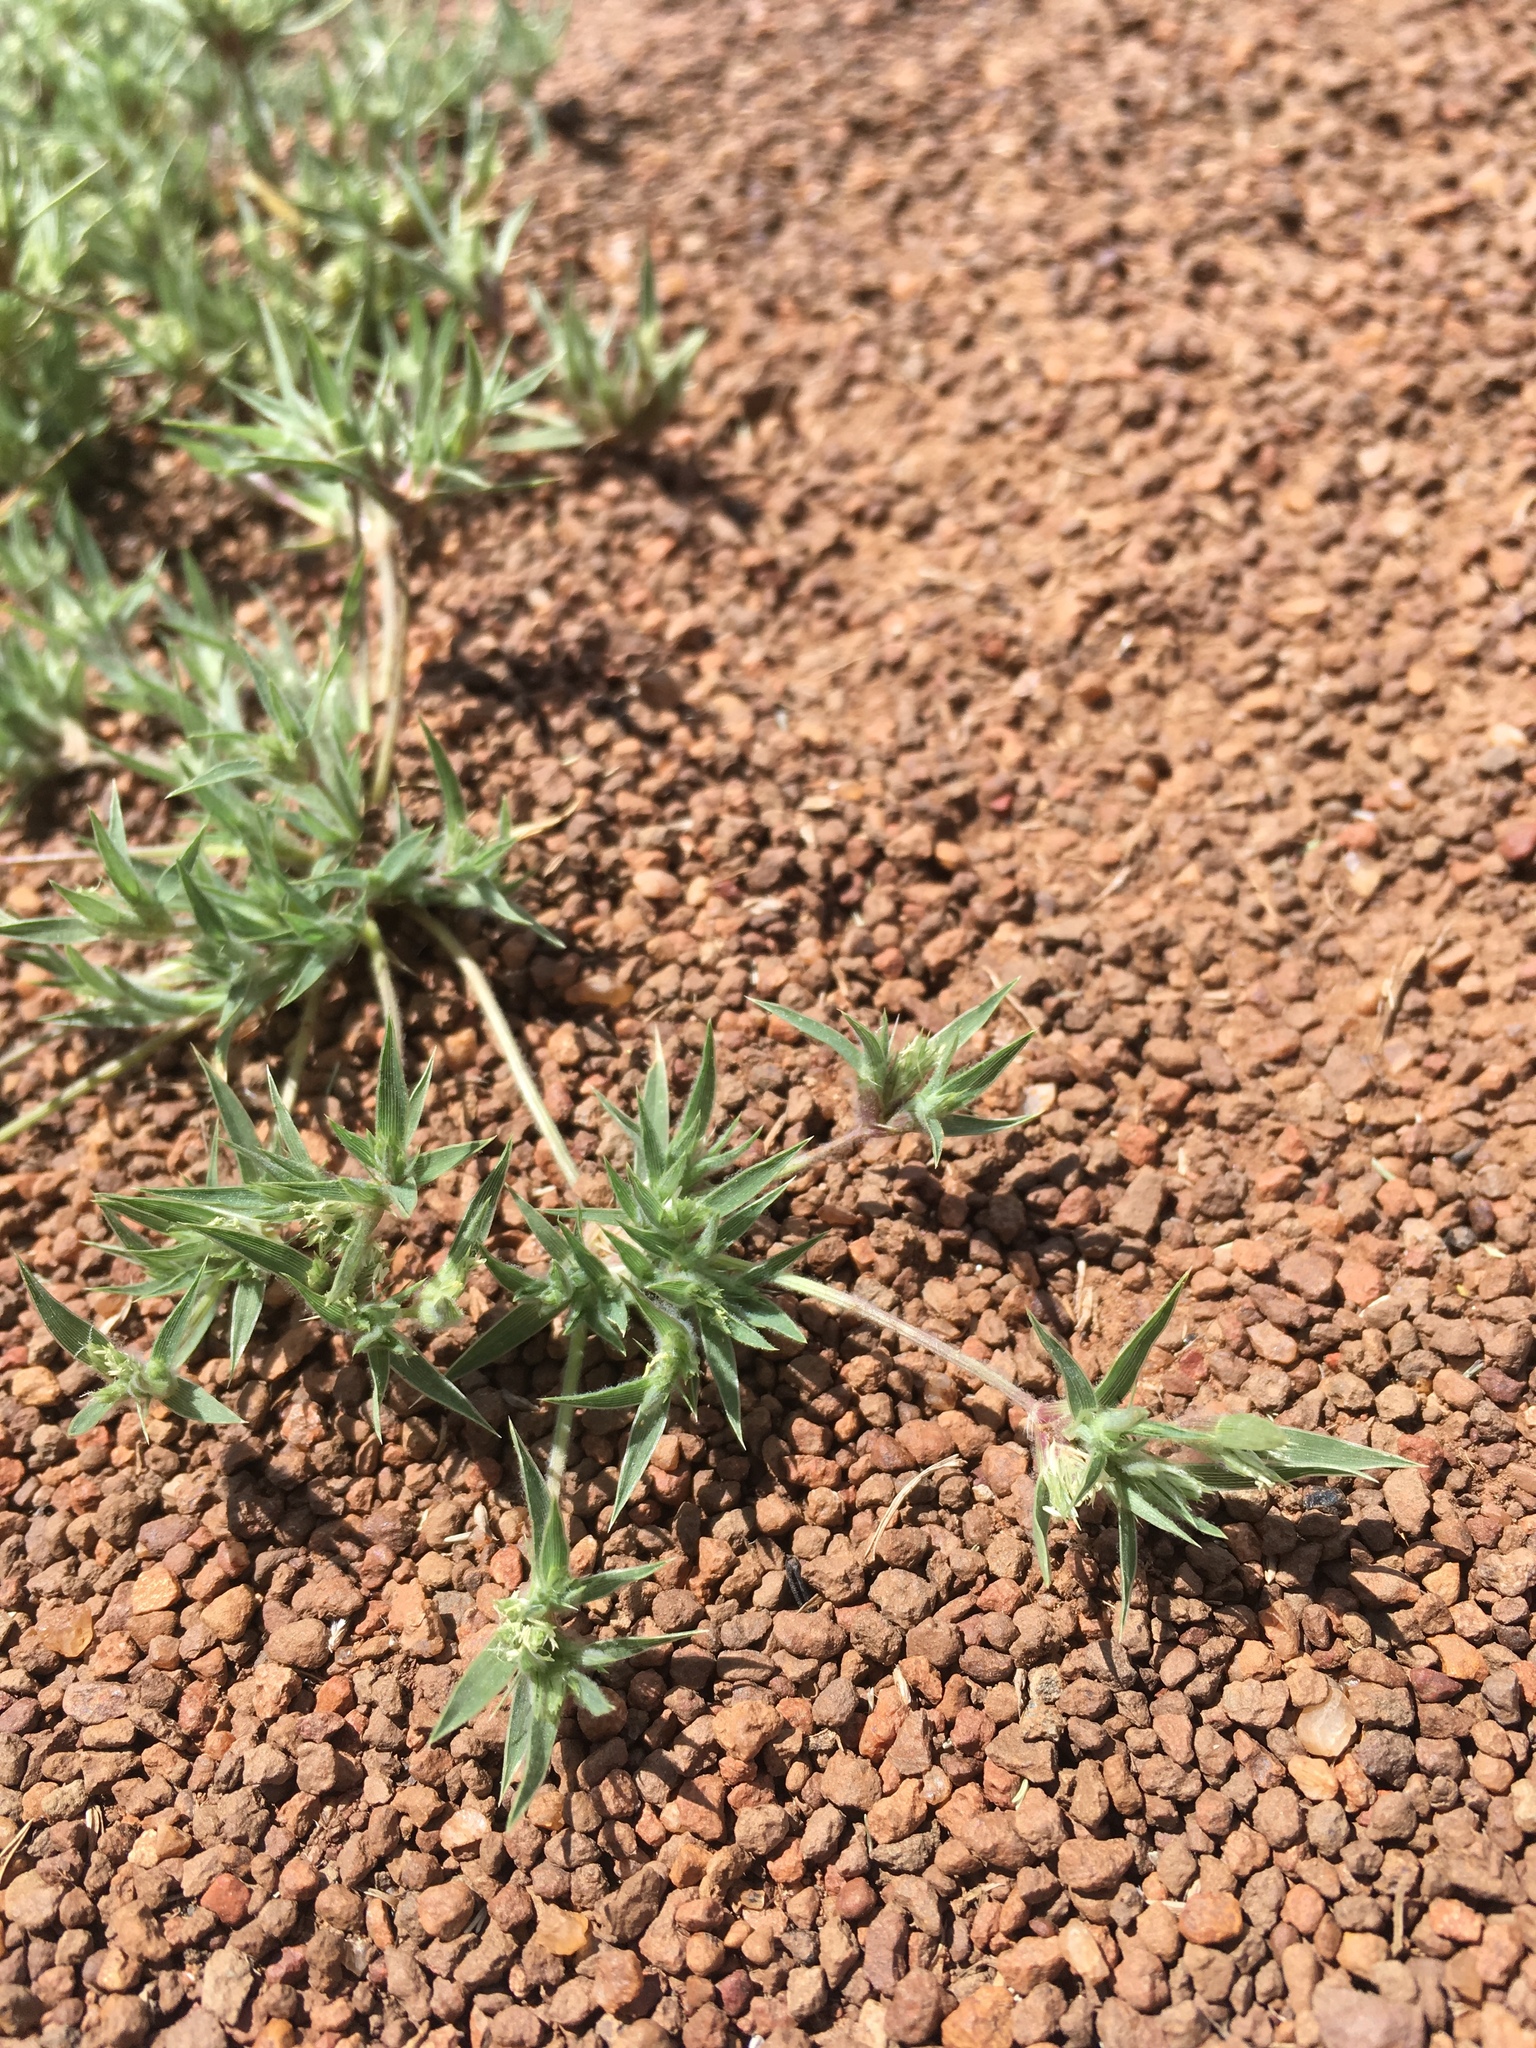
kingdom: Plantae
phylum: Tracheophyta
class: Liliopsida
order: Poales
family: Poaceae
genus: Munroa
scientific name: Munroa squarrosa
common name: False buffalo grass
